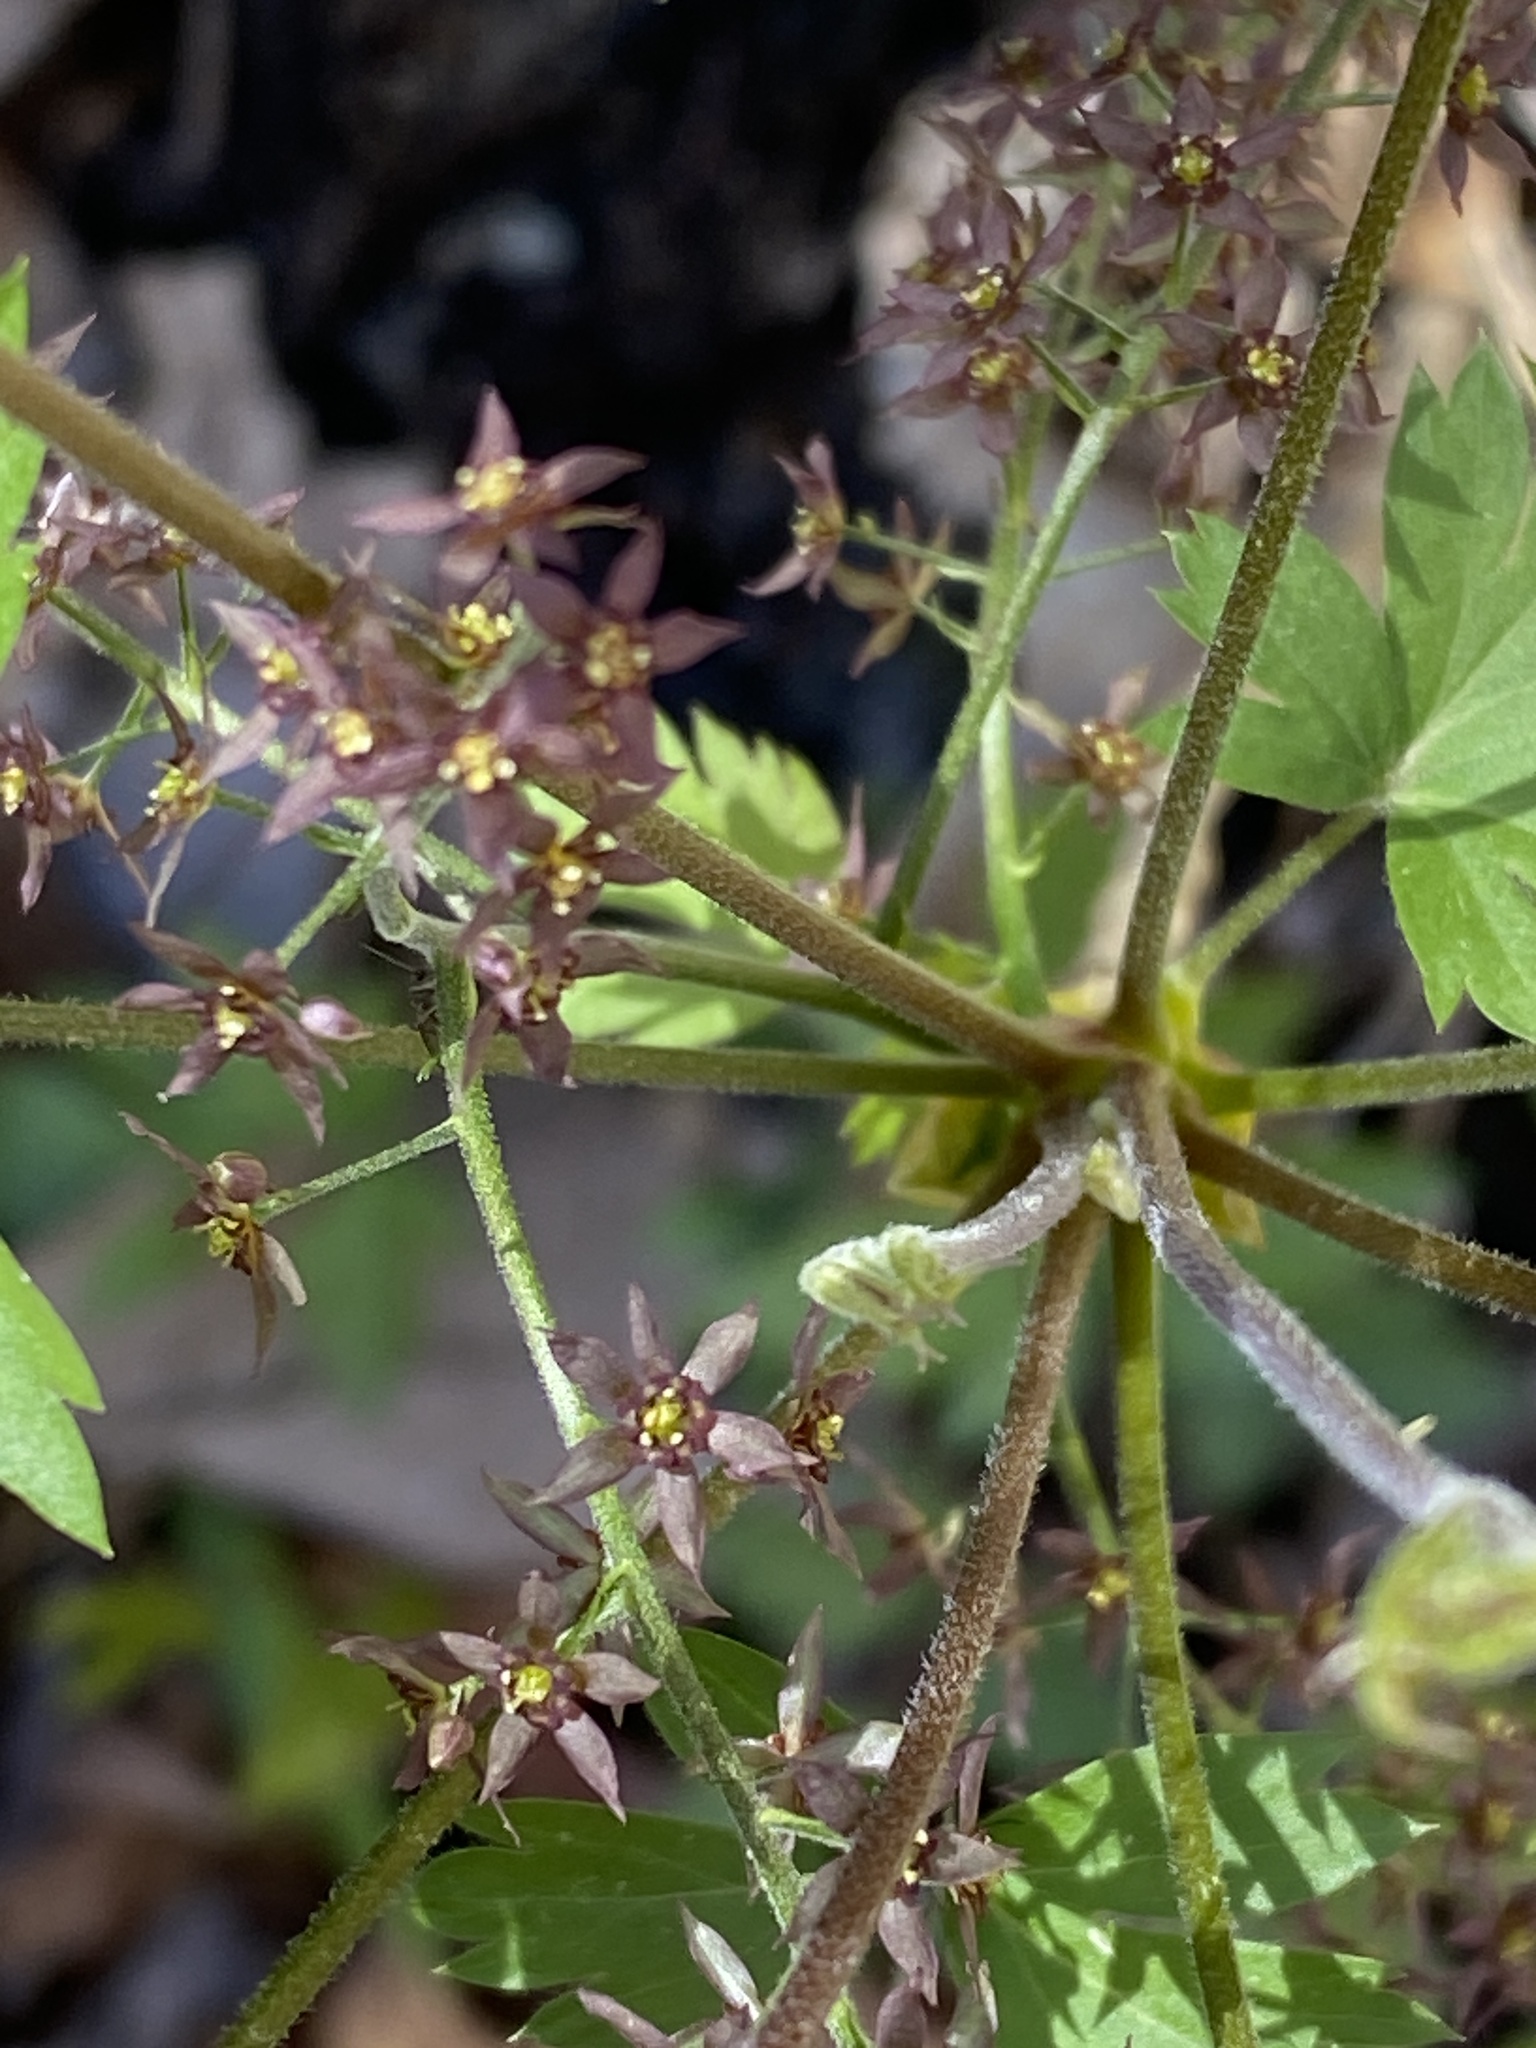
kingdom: Plantae
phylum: Tracheophyta
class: Magnoliopsida
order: Ranunculales
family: Ranunculaceae
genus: Xanthorhiza
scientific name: Xanthorhiza simplicissima
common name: Yellowroot
